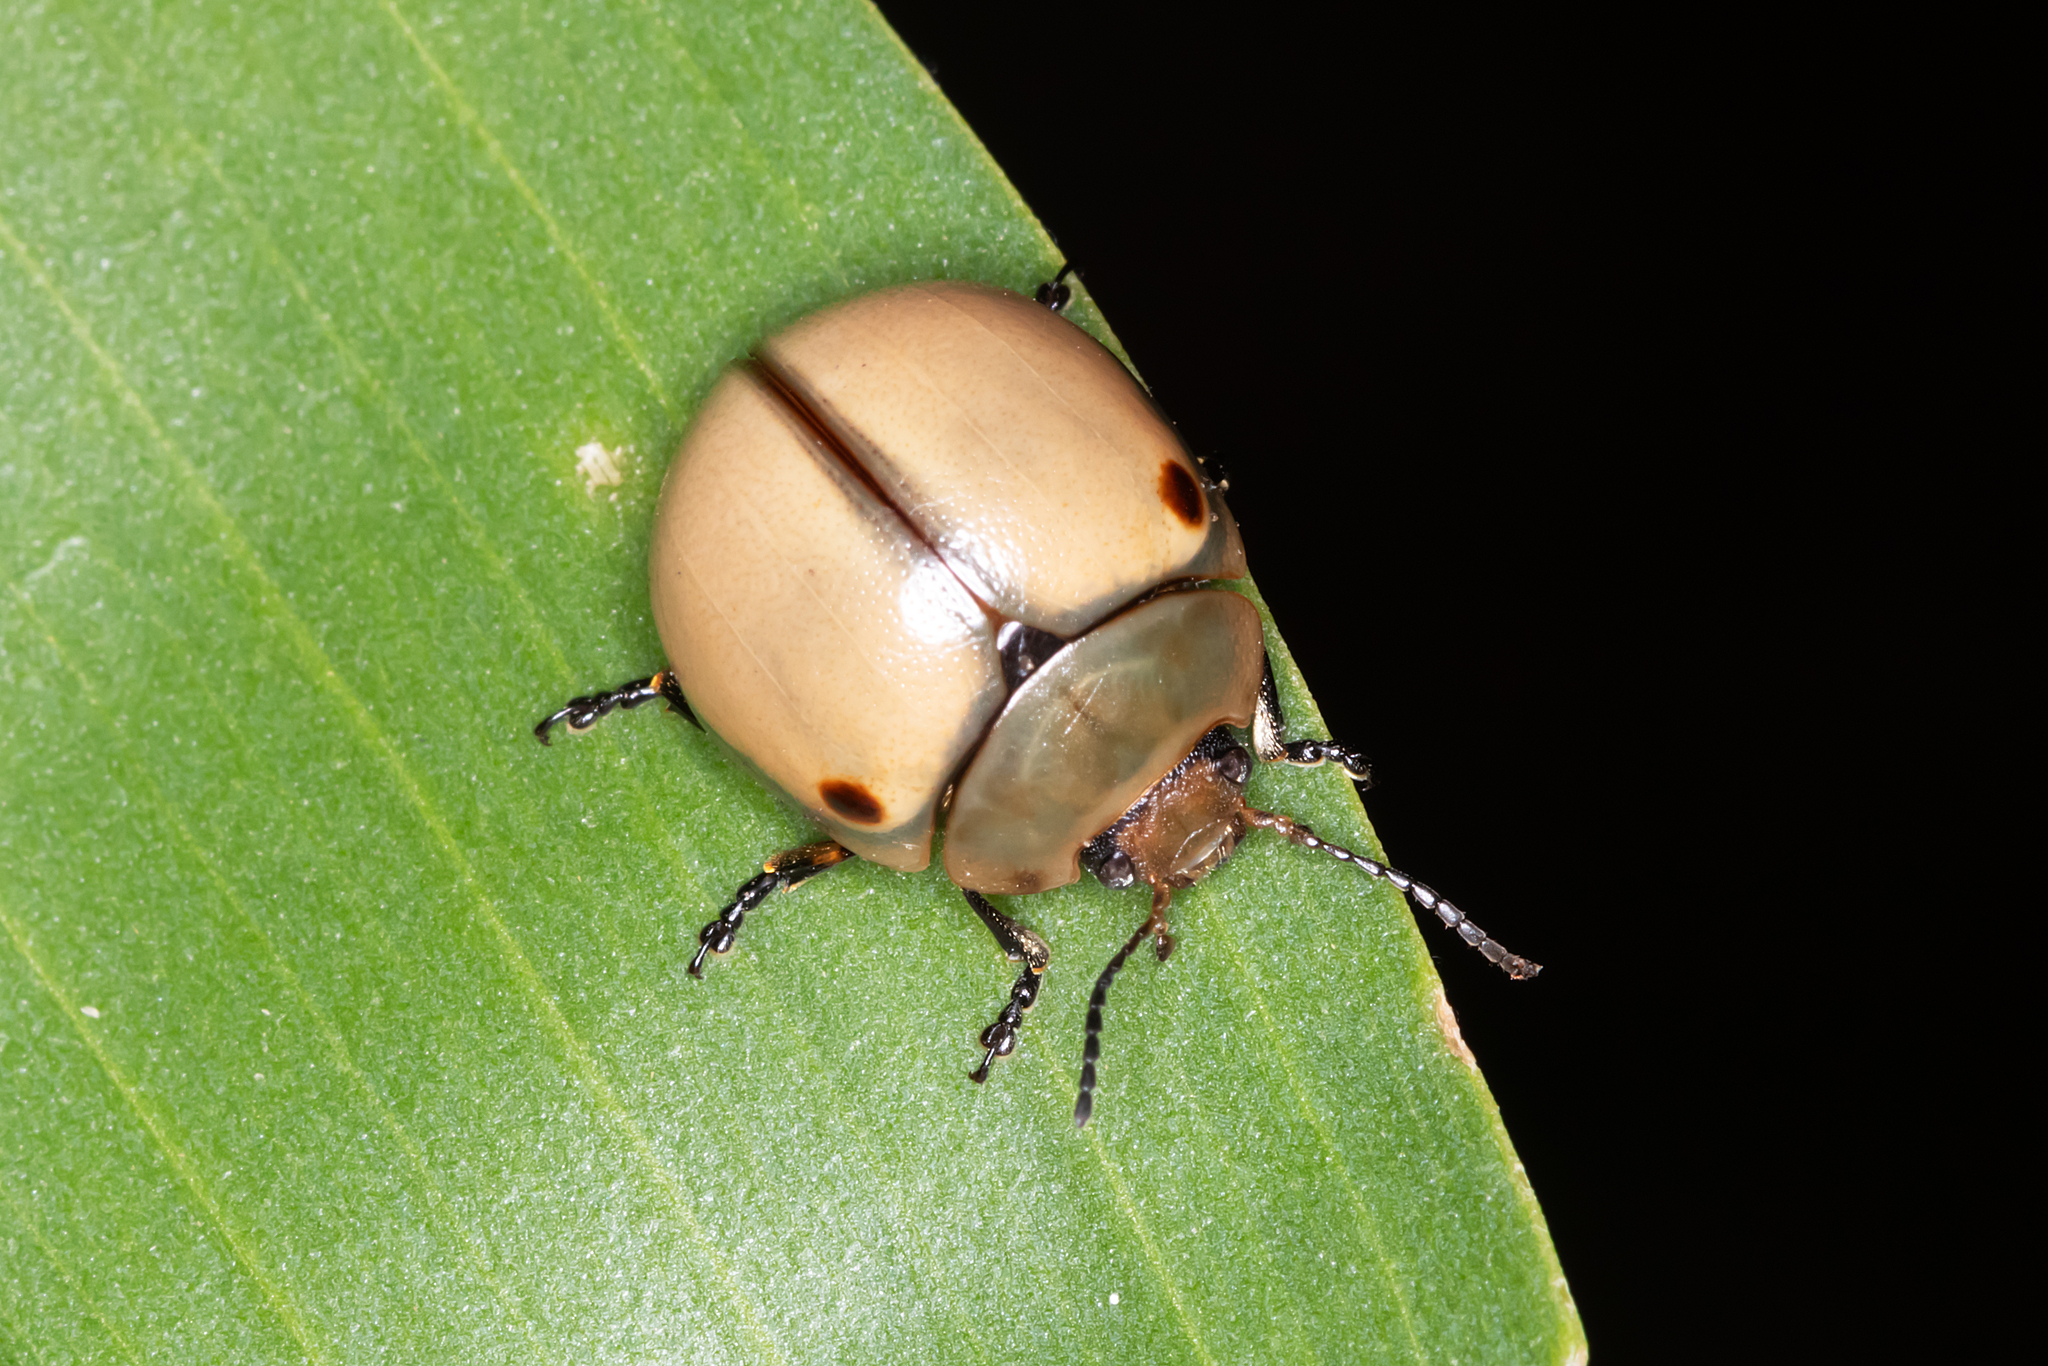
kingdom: Animalia
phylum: Arthropoda
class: Insecta
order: Coleoptera
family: Chrysomelidae
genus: Dicranosterna
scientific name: Dicranosterna
